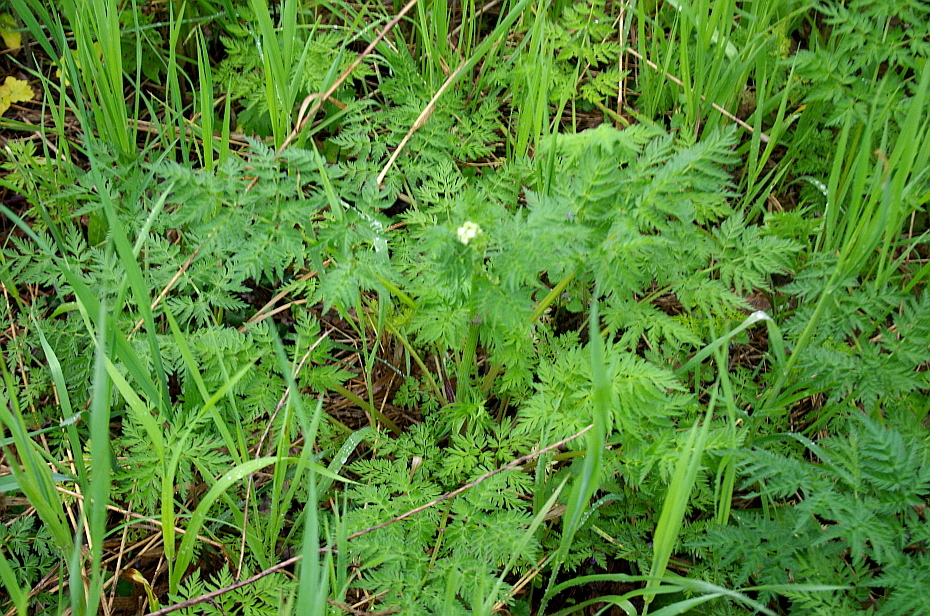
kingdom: Plantae
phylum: Tracheophyta
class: Magnoliopsida
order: Apiales
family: Apiaceae
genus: Anthriscus
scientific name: Anthriscus sylvestris
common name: Cow parsley
